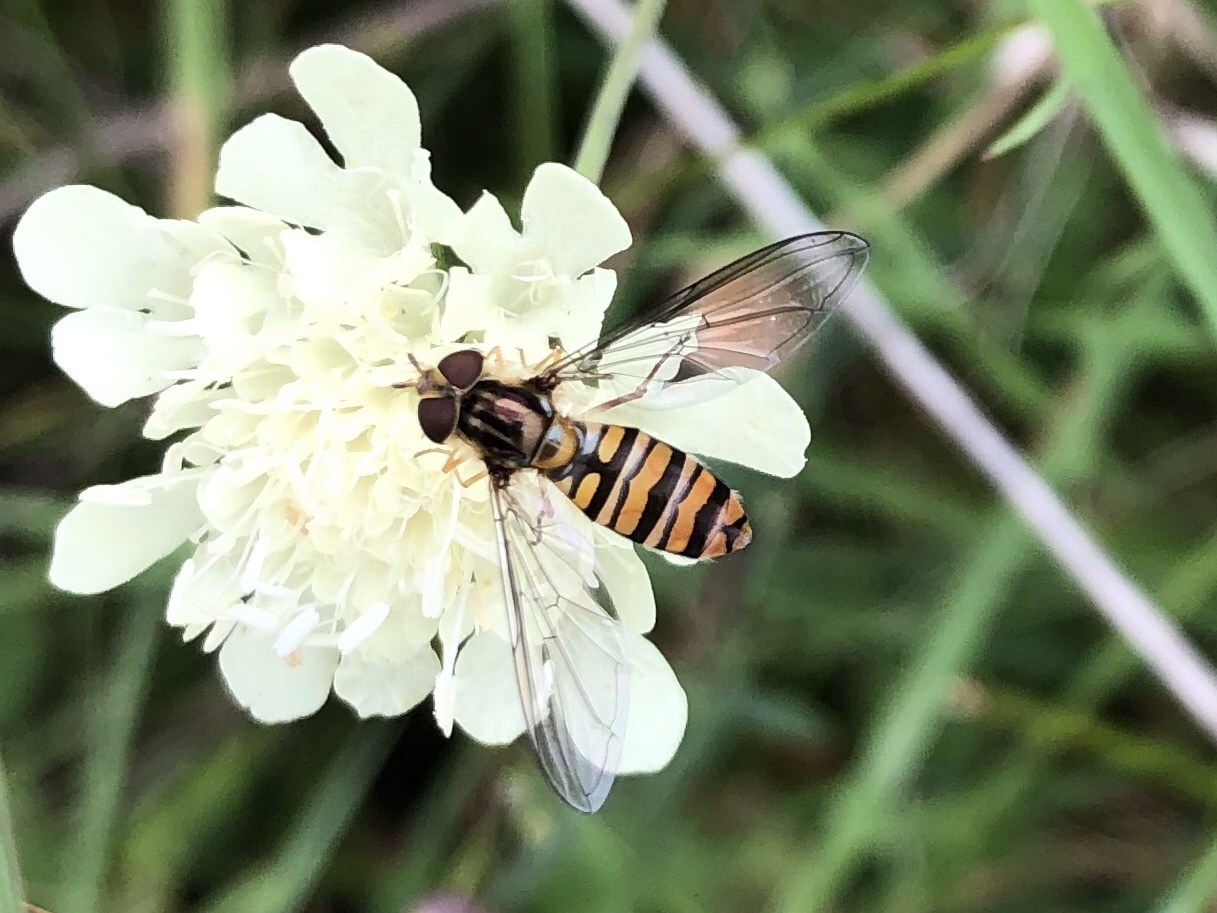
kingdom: Animalia
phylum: Arthropoda
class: Insecta
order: Diptera
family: Syrphidae
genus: Episyrphus
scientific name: Episyrphus balteatus
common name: Marmalade hoverfly
